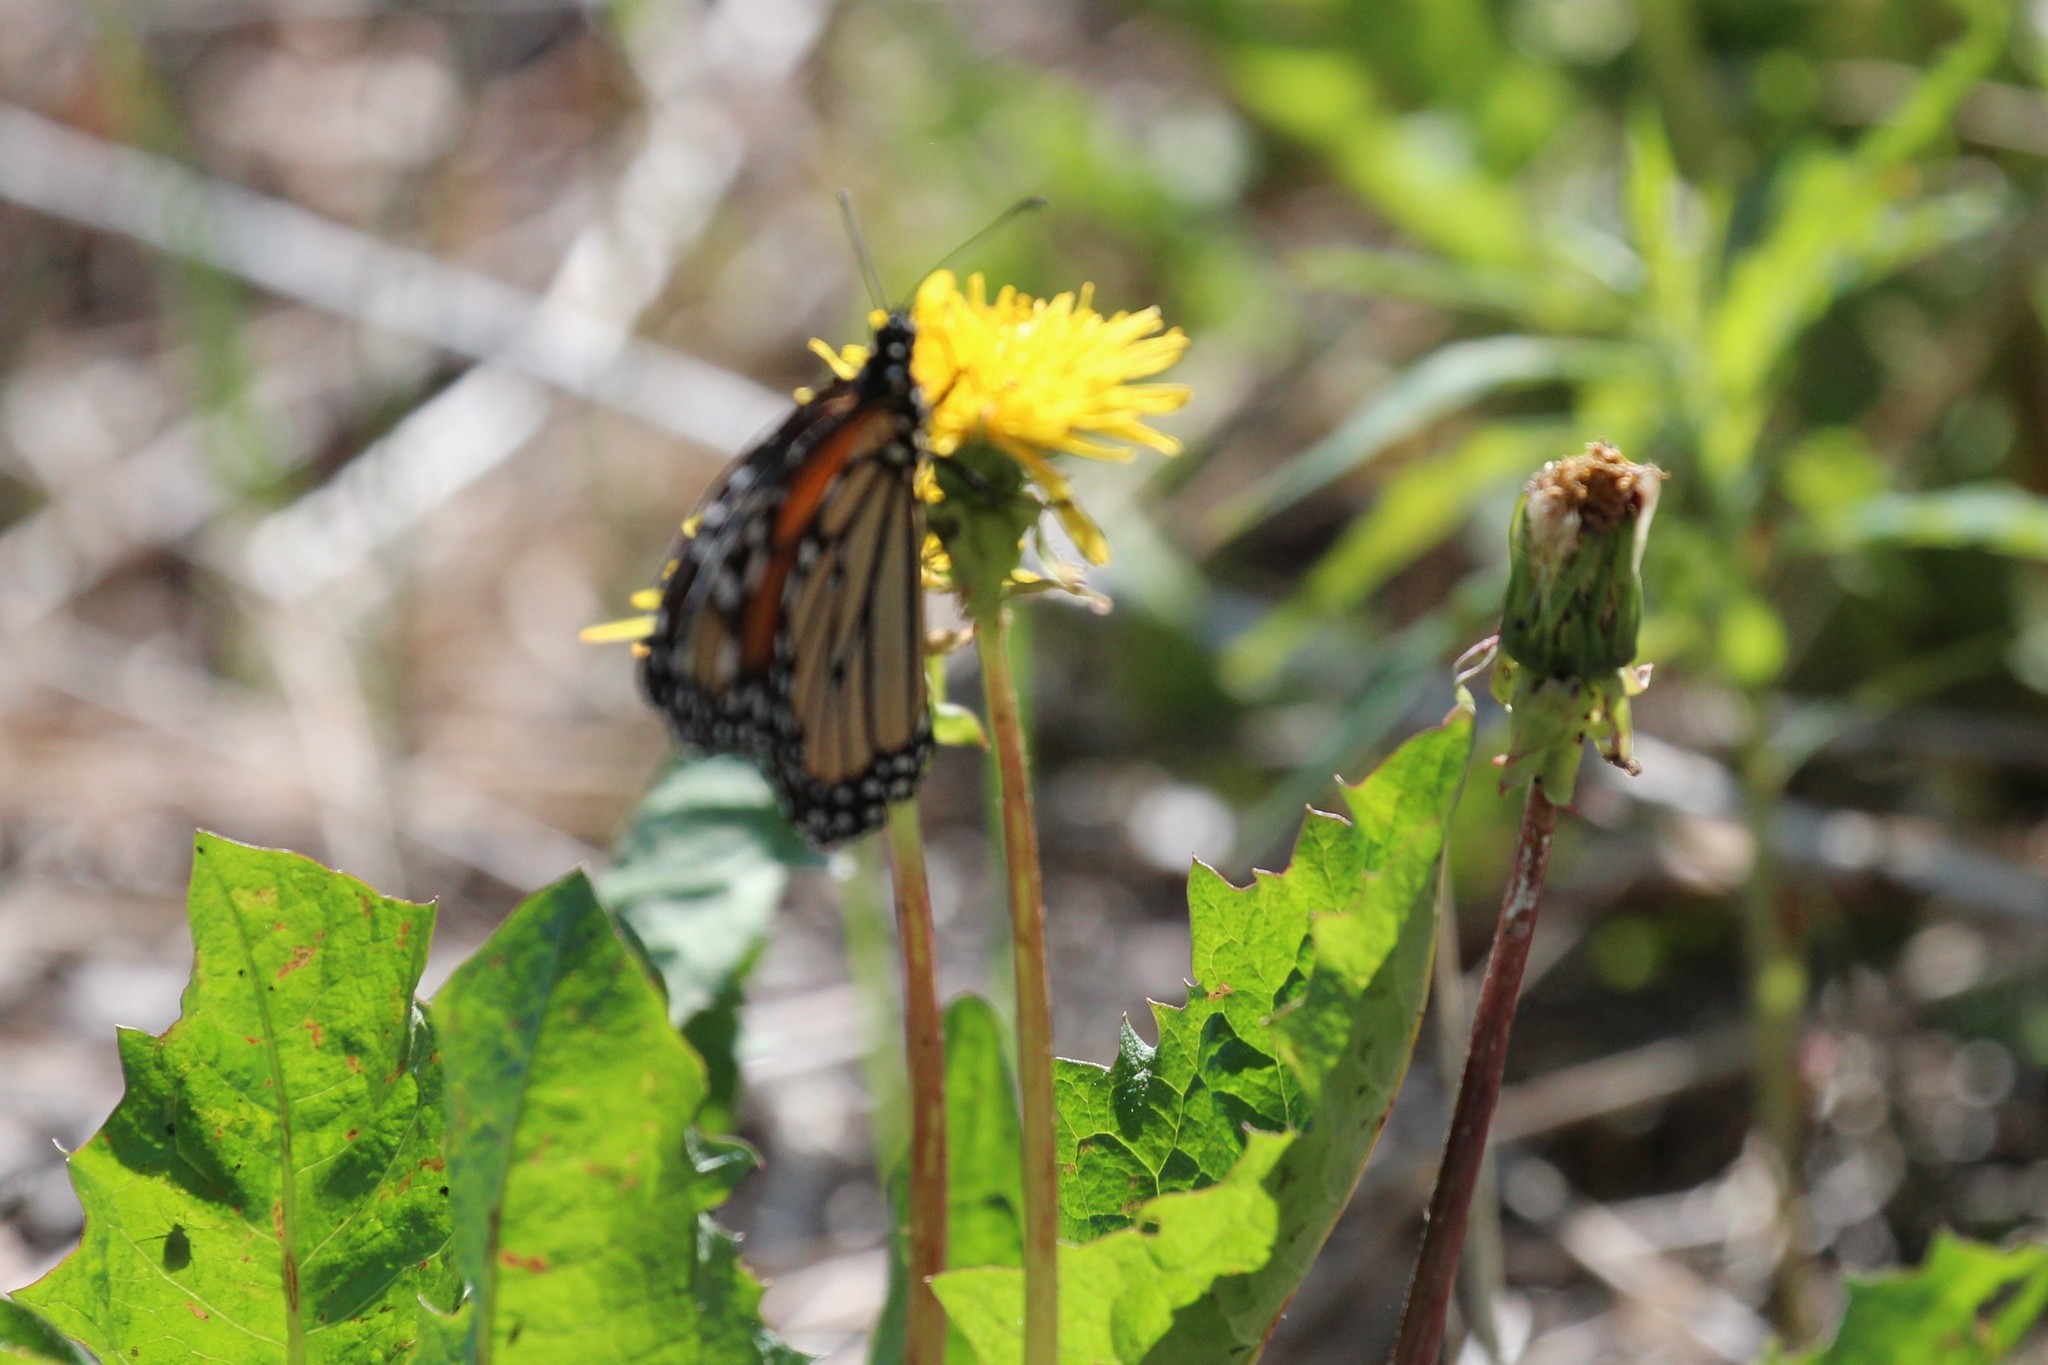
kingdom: Animalia
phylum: Arthropoda
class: Insecta
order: Lepidoptera
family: Nymphalidae
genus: Danaus
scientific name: Danaus plexippus
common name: Monarch
